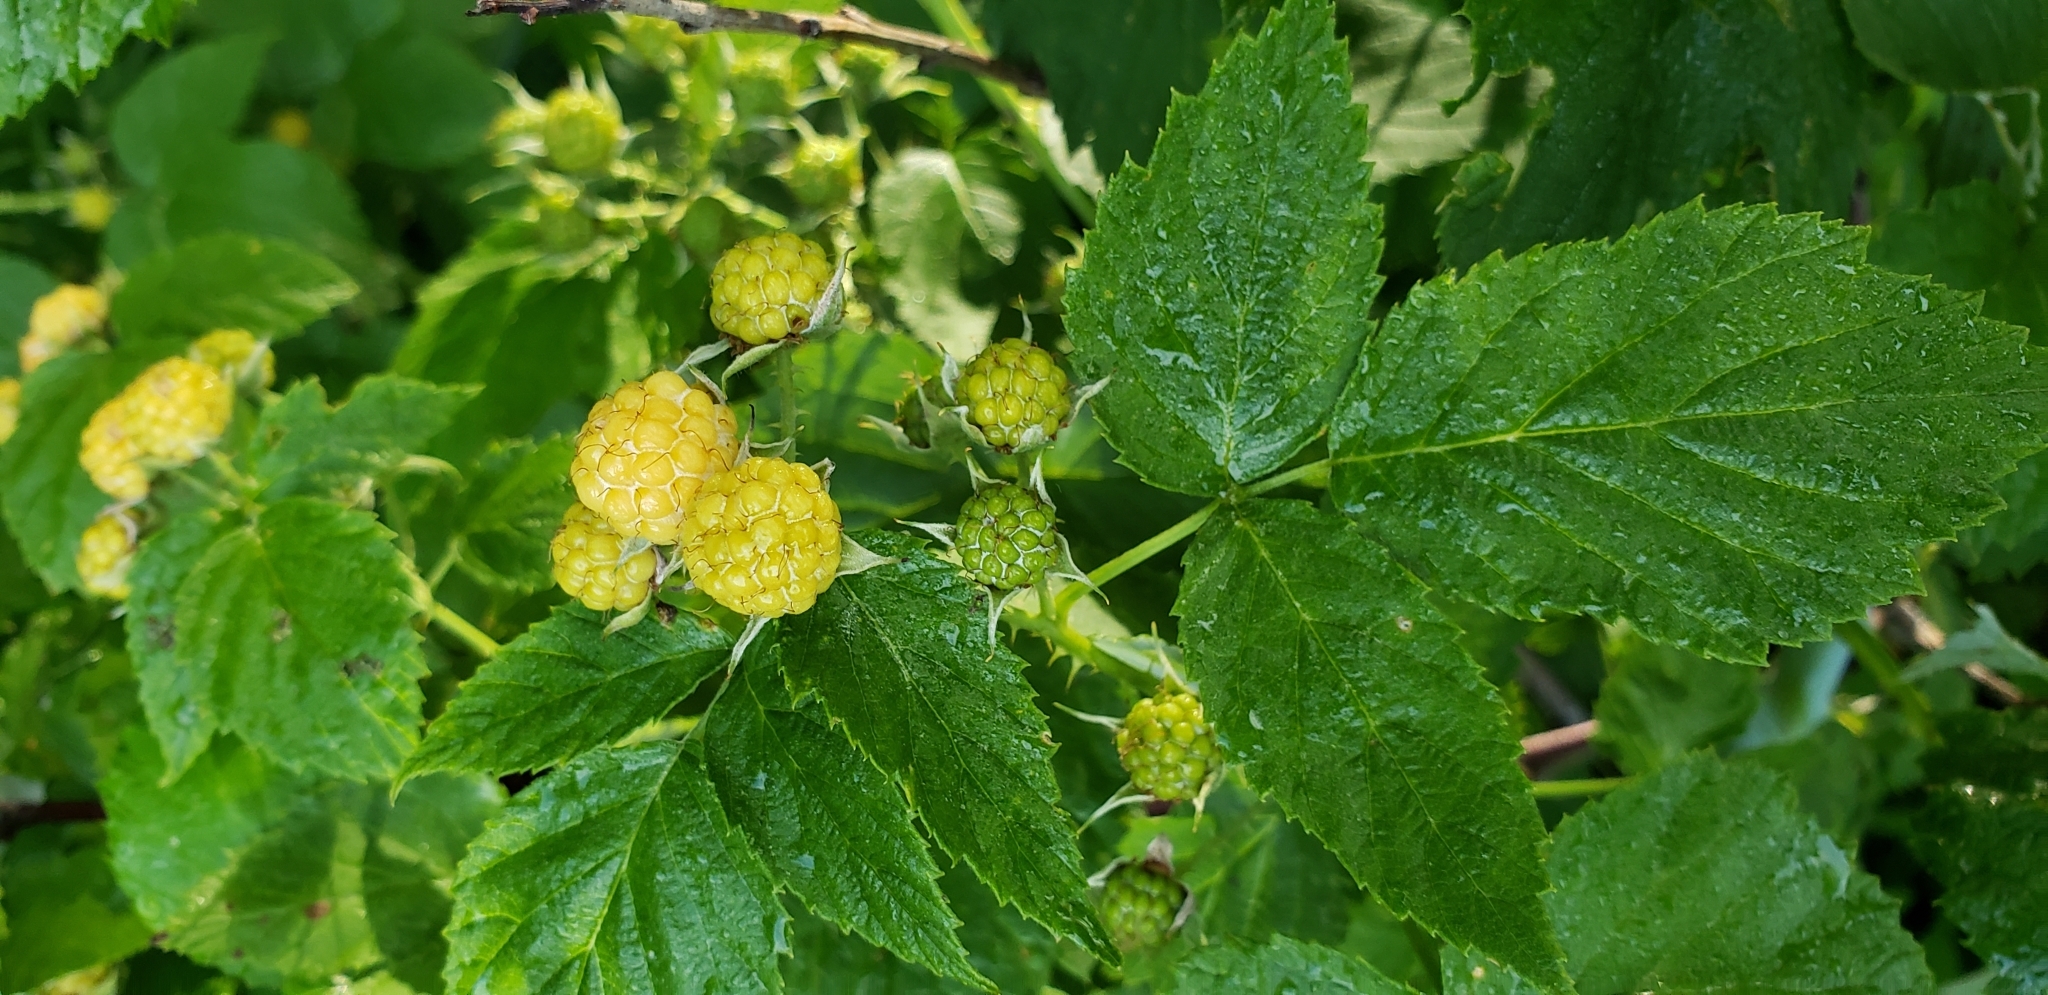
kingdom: Plantae
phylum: Tracheophyta
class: Magnoliopsida
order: Rosales
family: Rosaceae
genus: Rubus
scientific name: Rubus occidentalis
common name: Black raspberry
